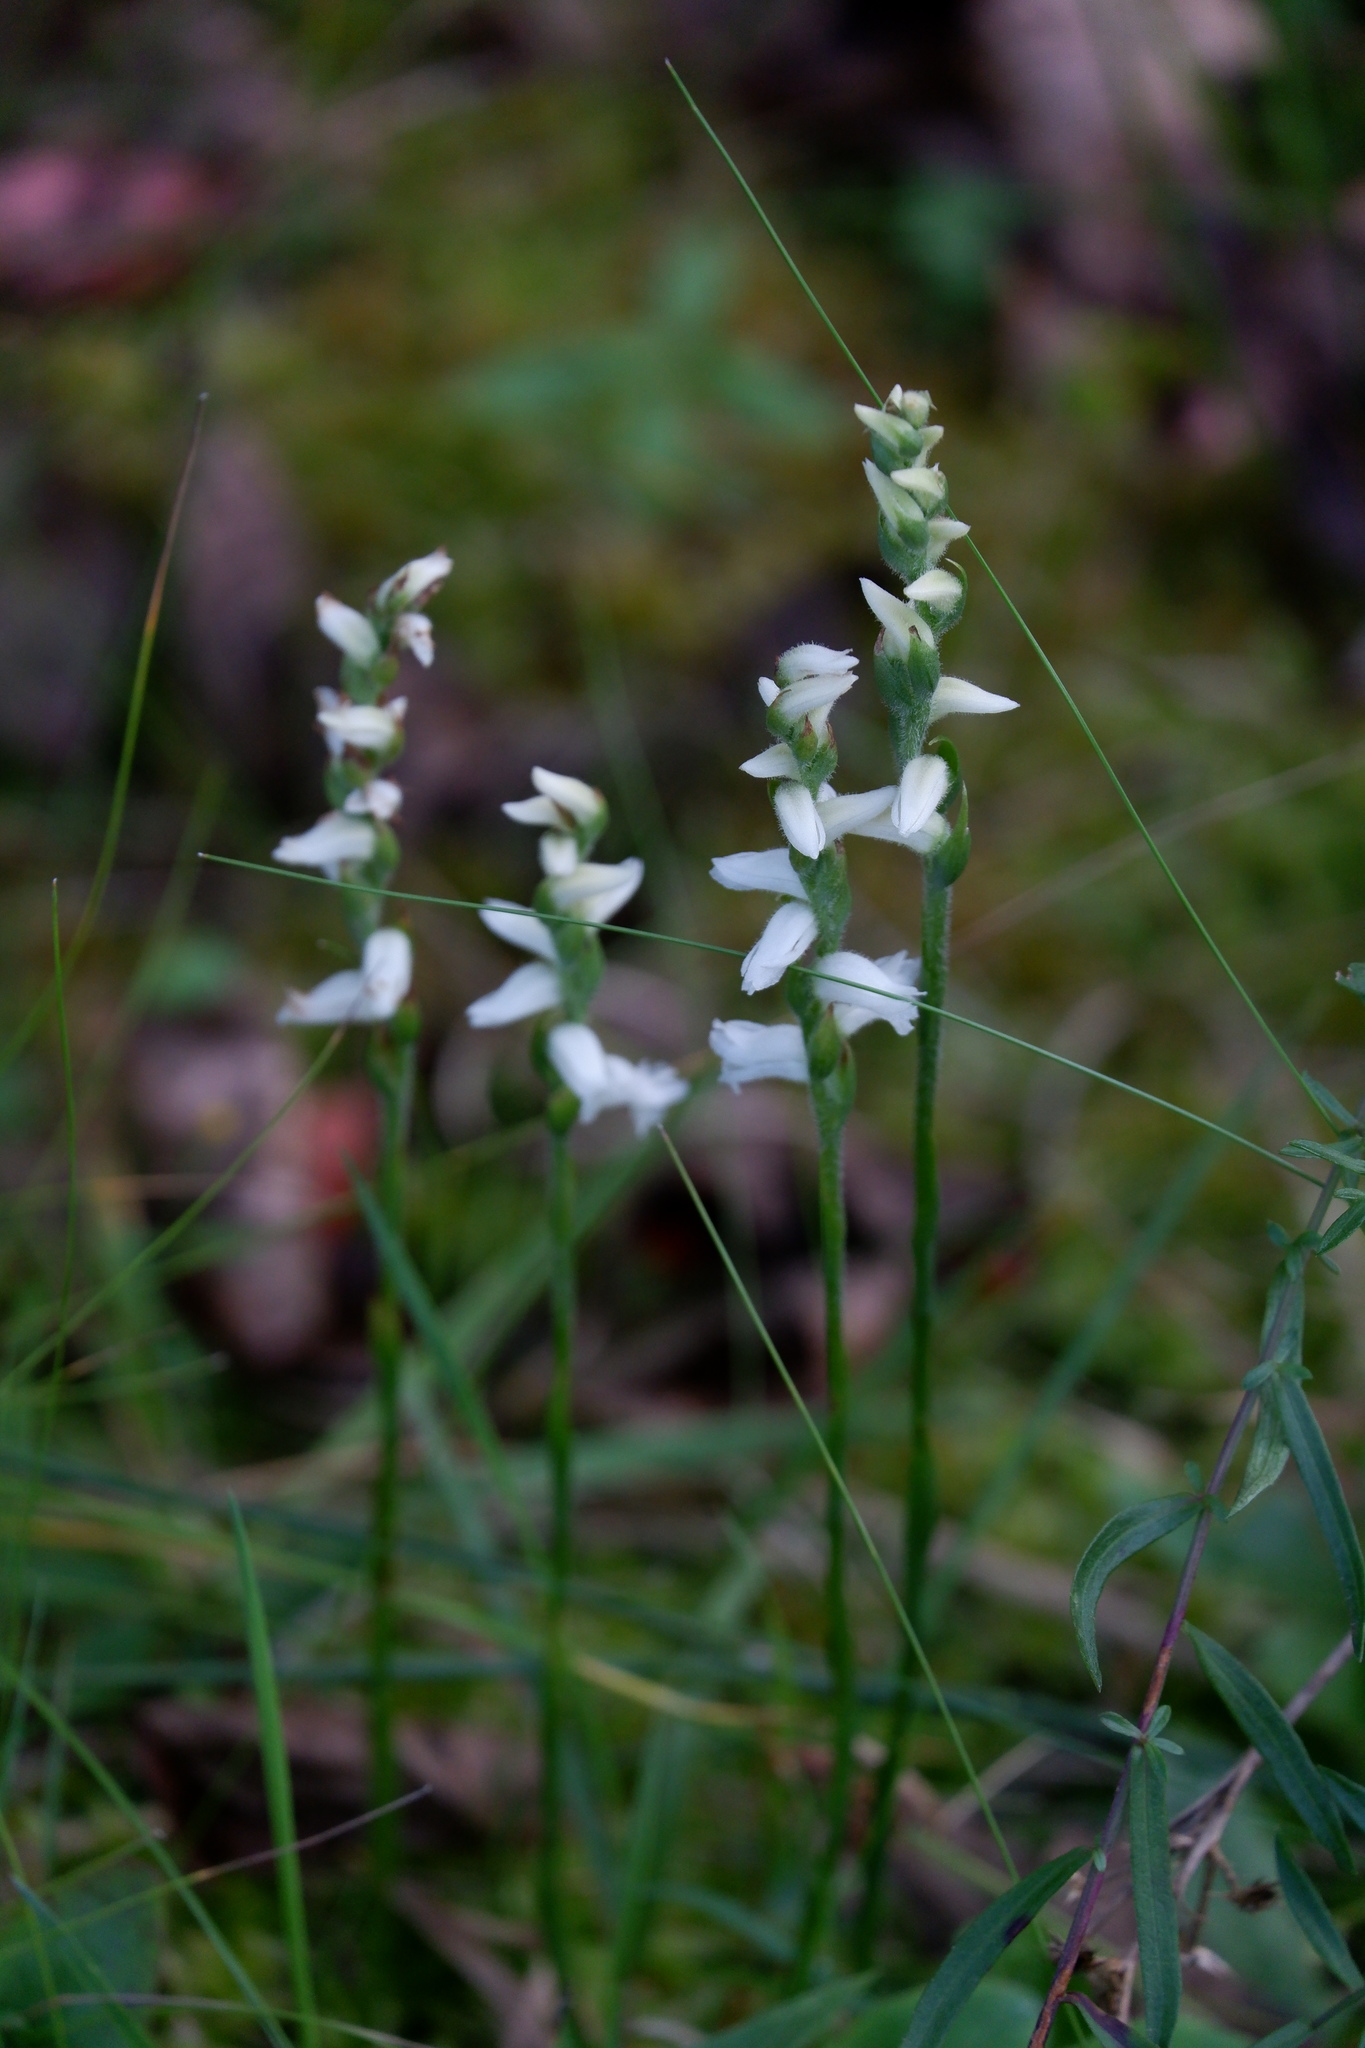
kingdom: Plantae
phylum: Tracheophyta
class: Liliopsida
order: Asparagales
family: Orchidaceae
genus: Spiranthes
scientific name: Spiranthes cernua
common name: Dropping ladies'-tresses
